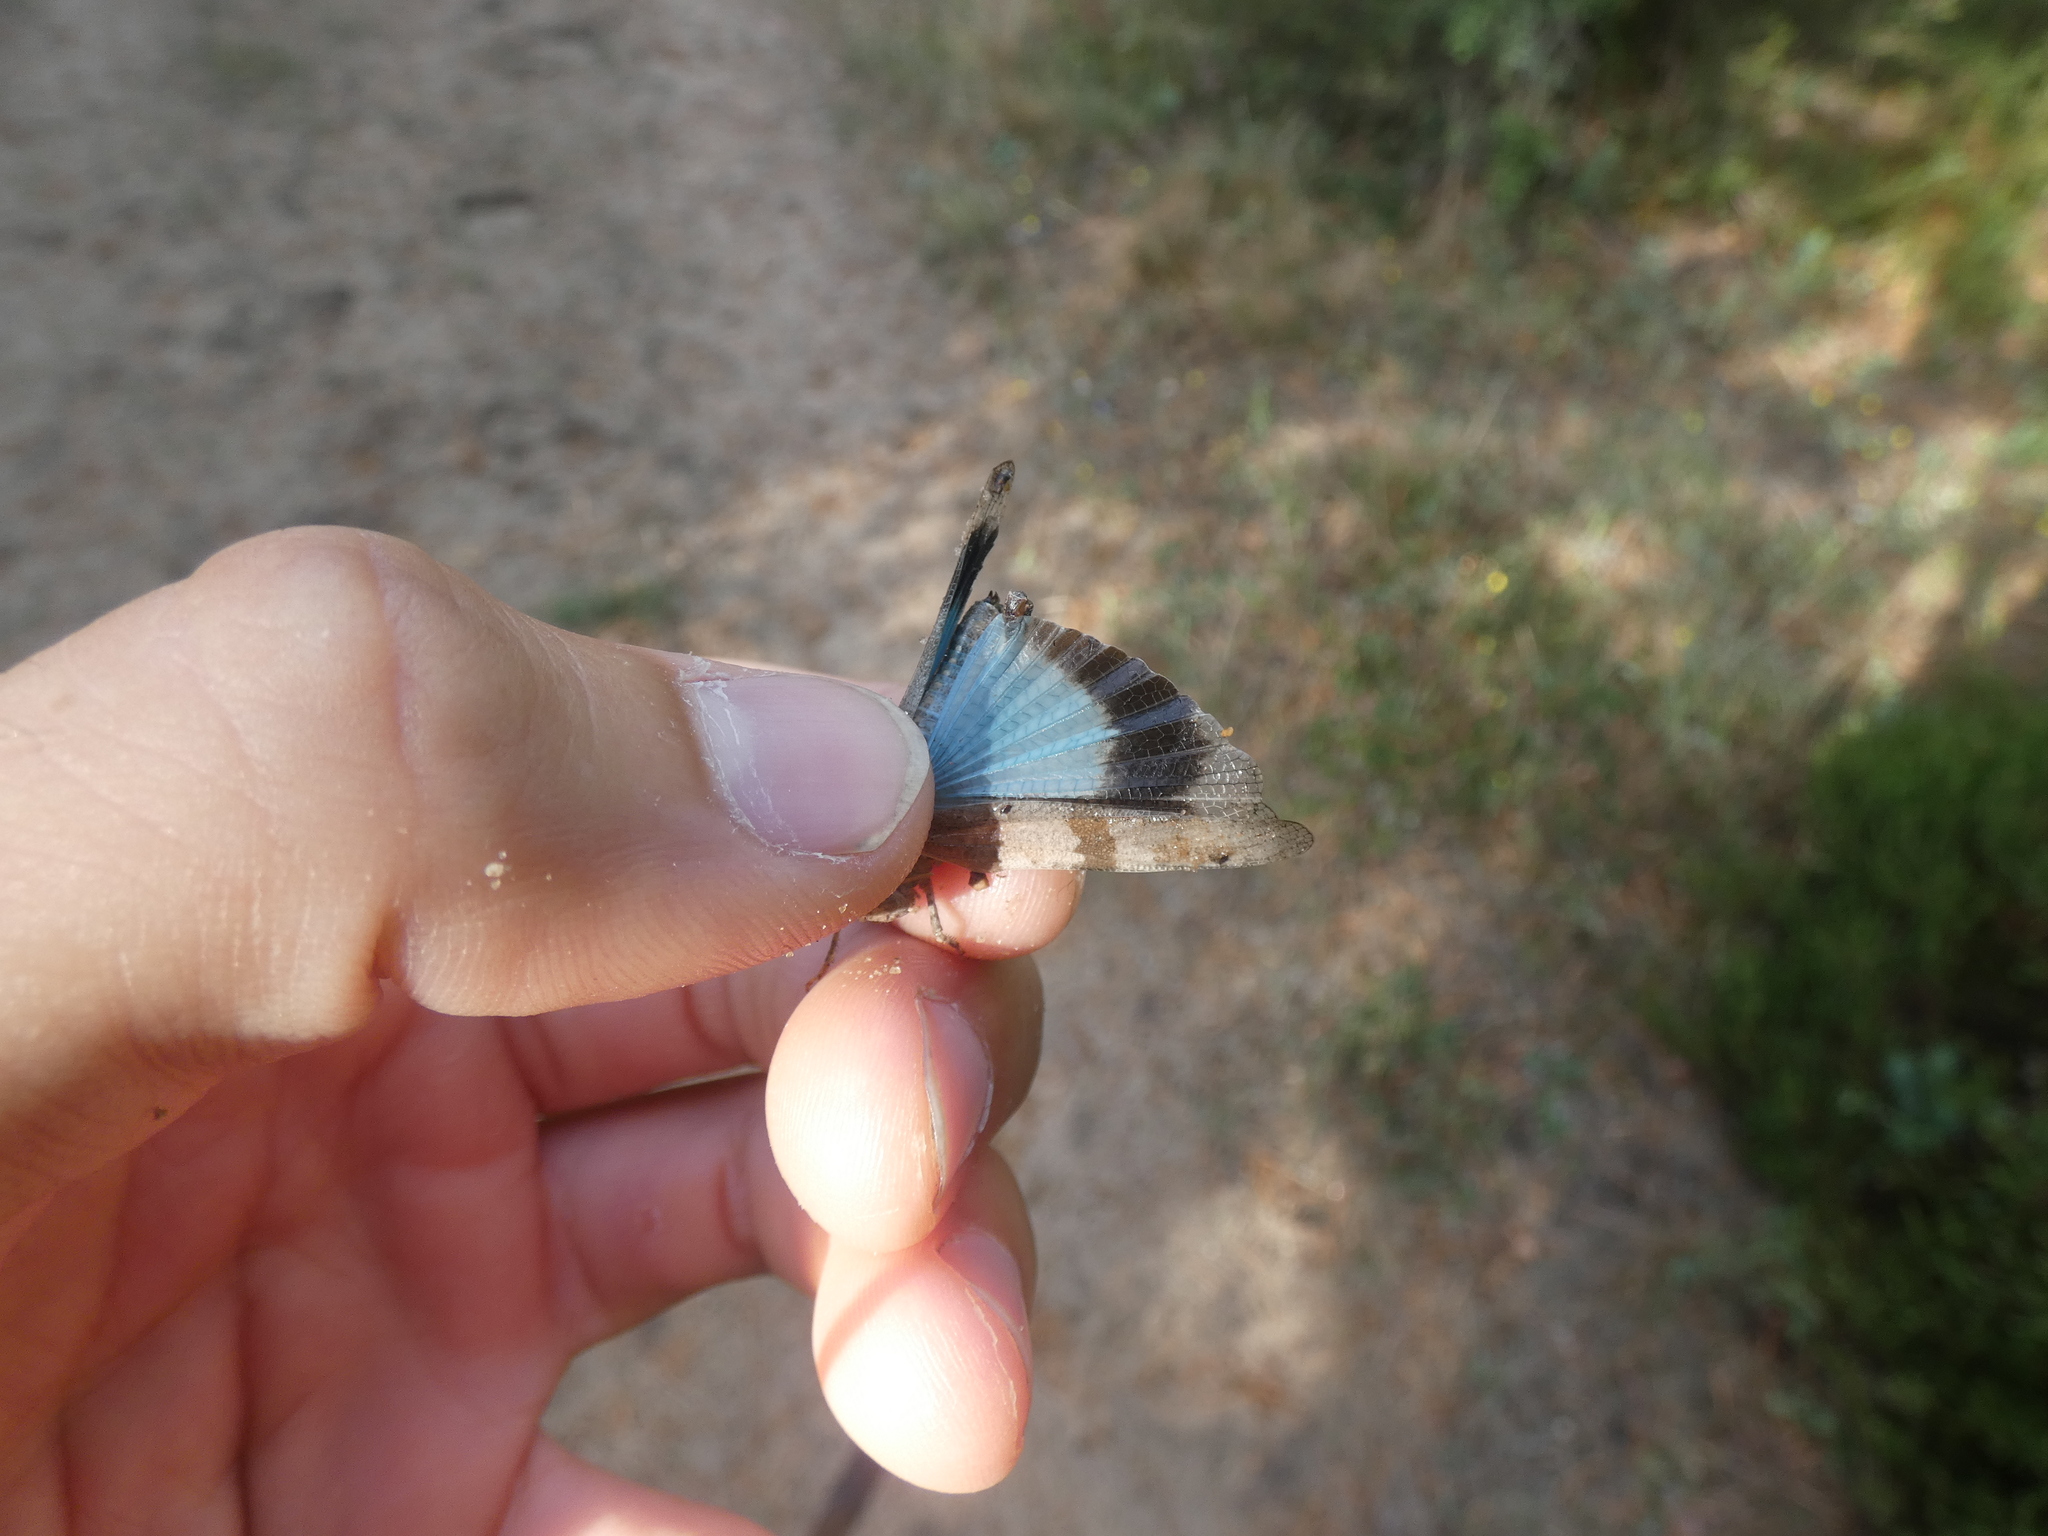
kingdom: Animalia
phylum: Arthropoda
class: Insecta
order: Orthoptera
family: Acrididae
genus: Oedipoda
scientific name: Oedipoda caerulescens
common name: Blue-winged grasshopper
